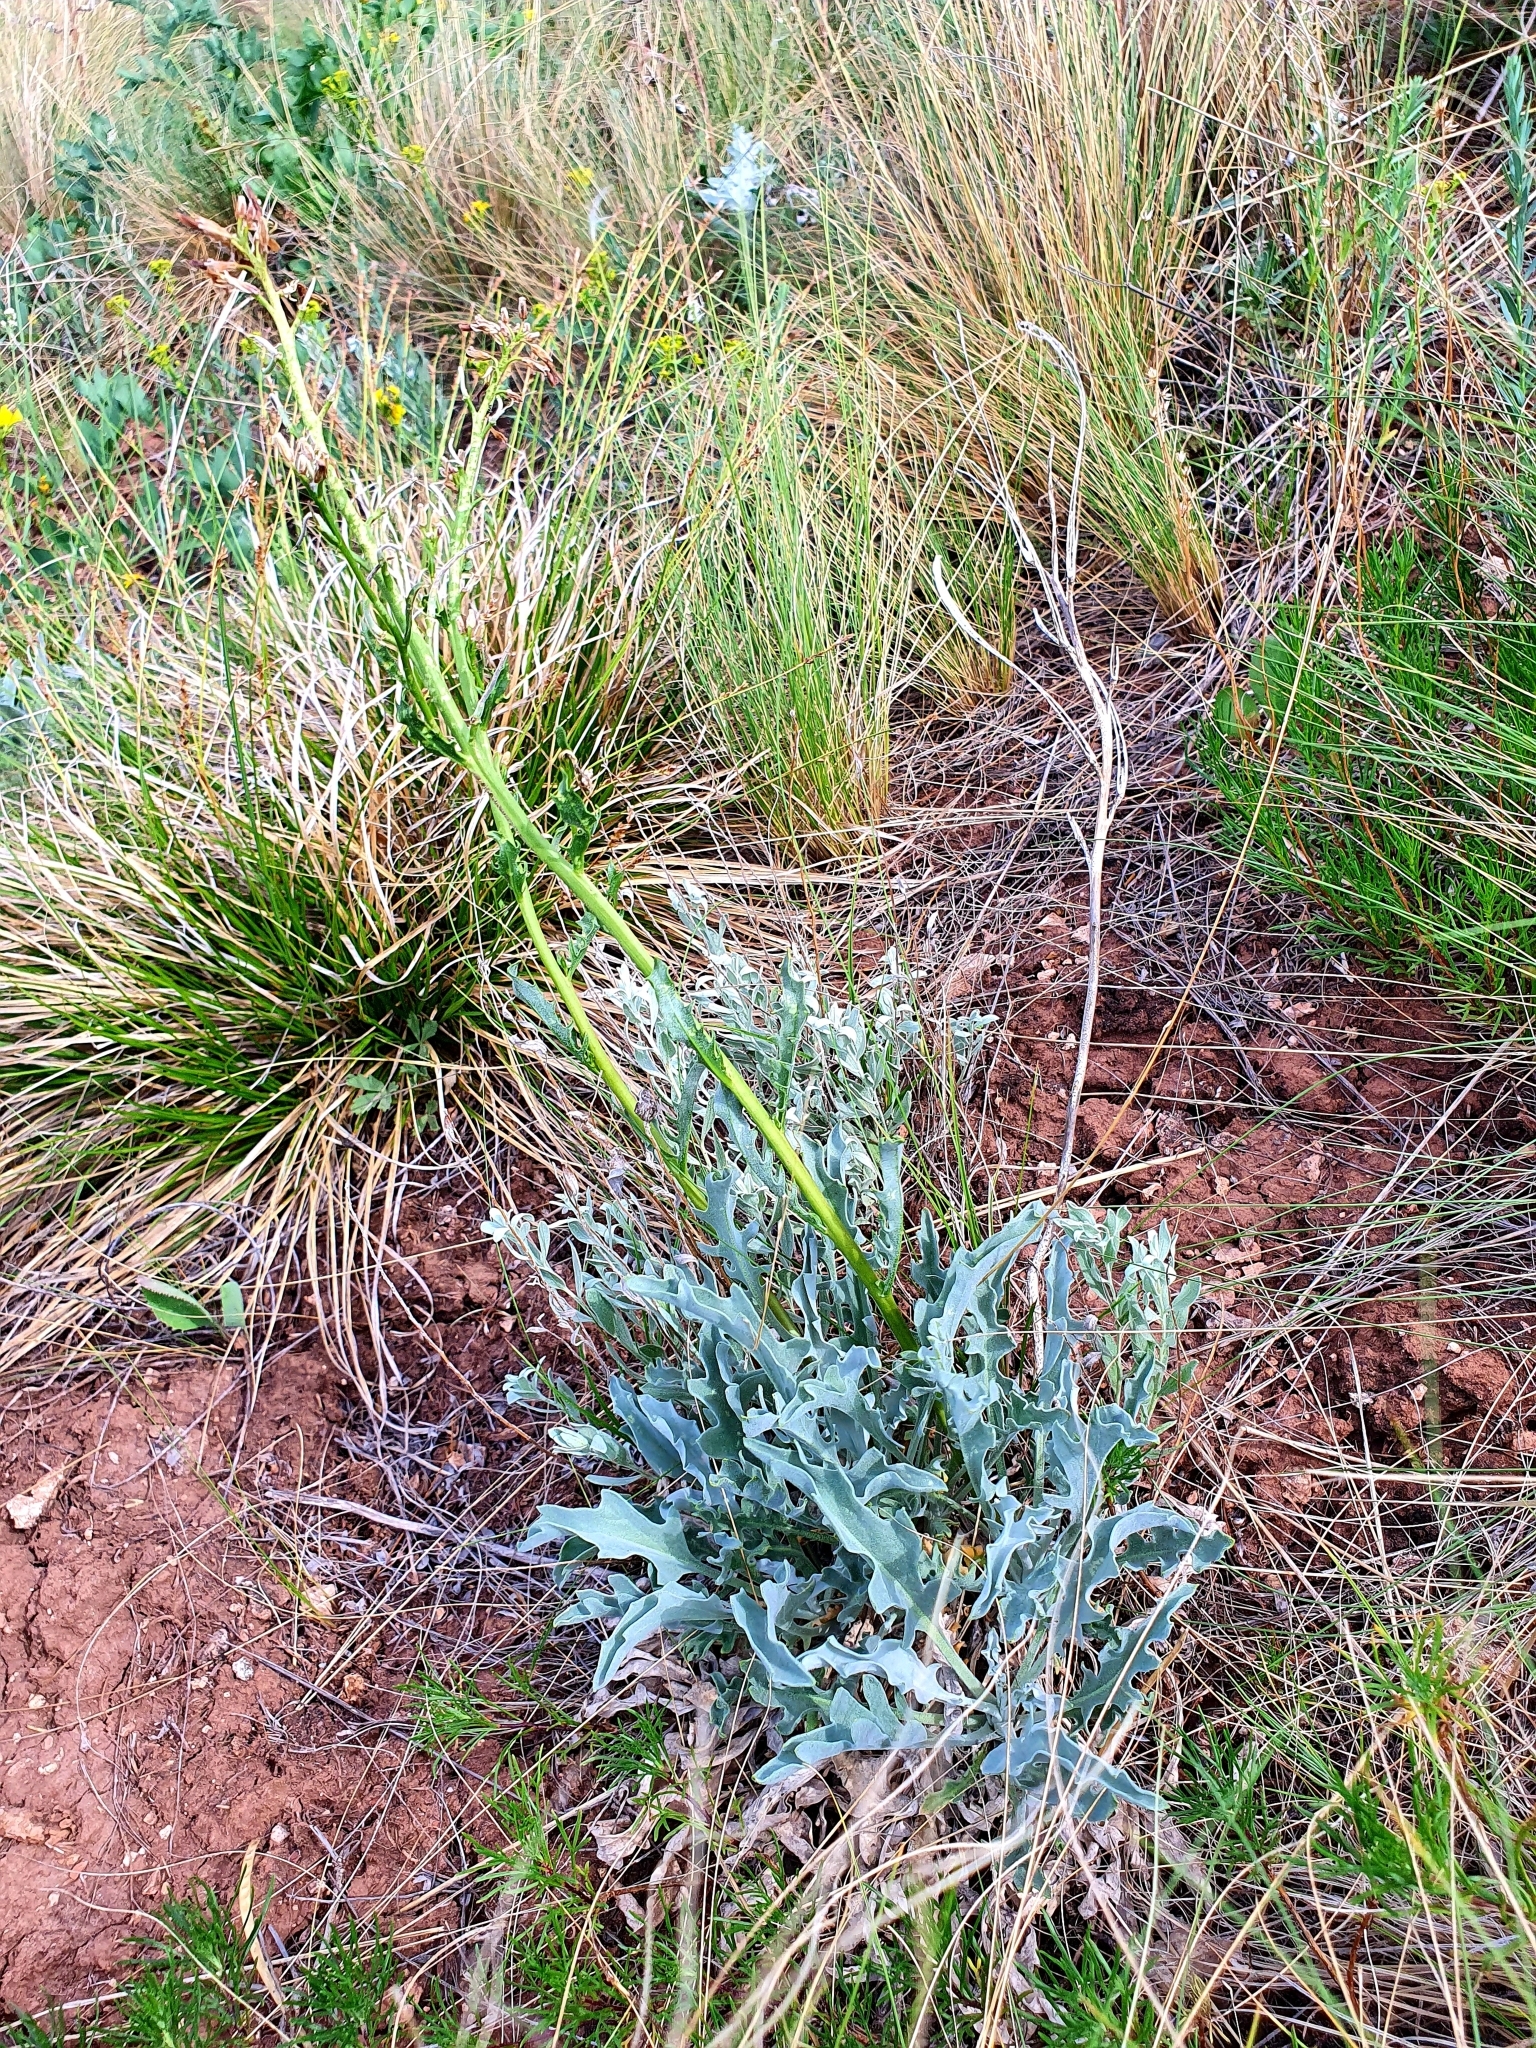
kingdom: Plantae
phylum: Tracheophyta
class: Magnoliopsida
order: Brassicales
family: Brassicaceae
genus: Matthiola
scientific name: Matthiola fragrans
